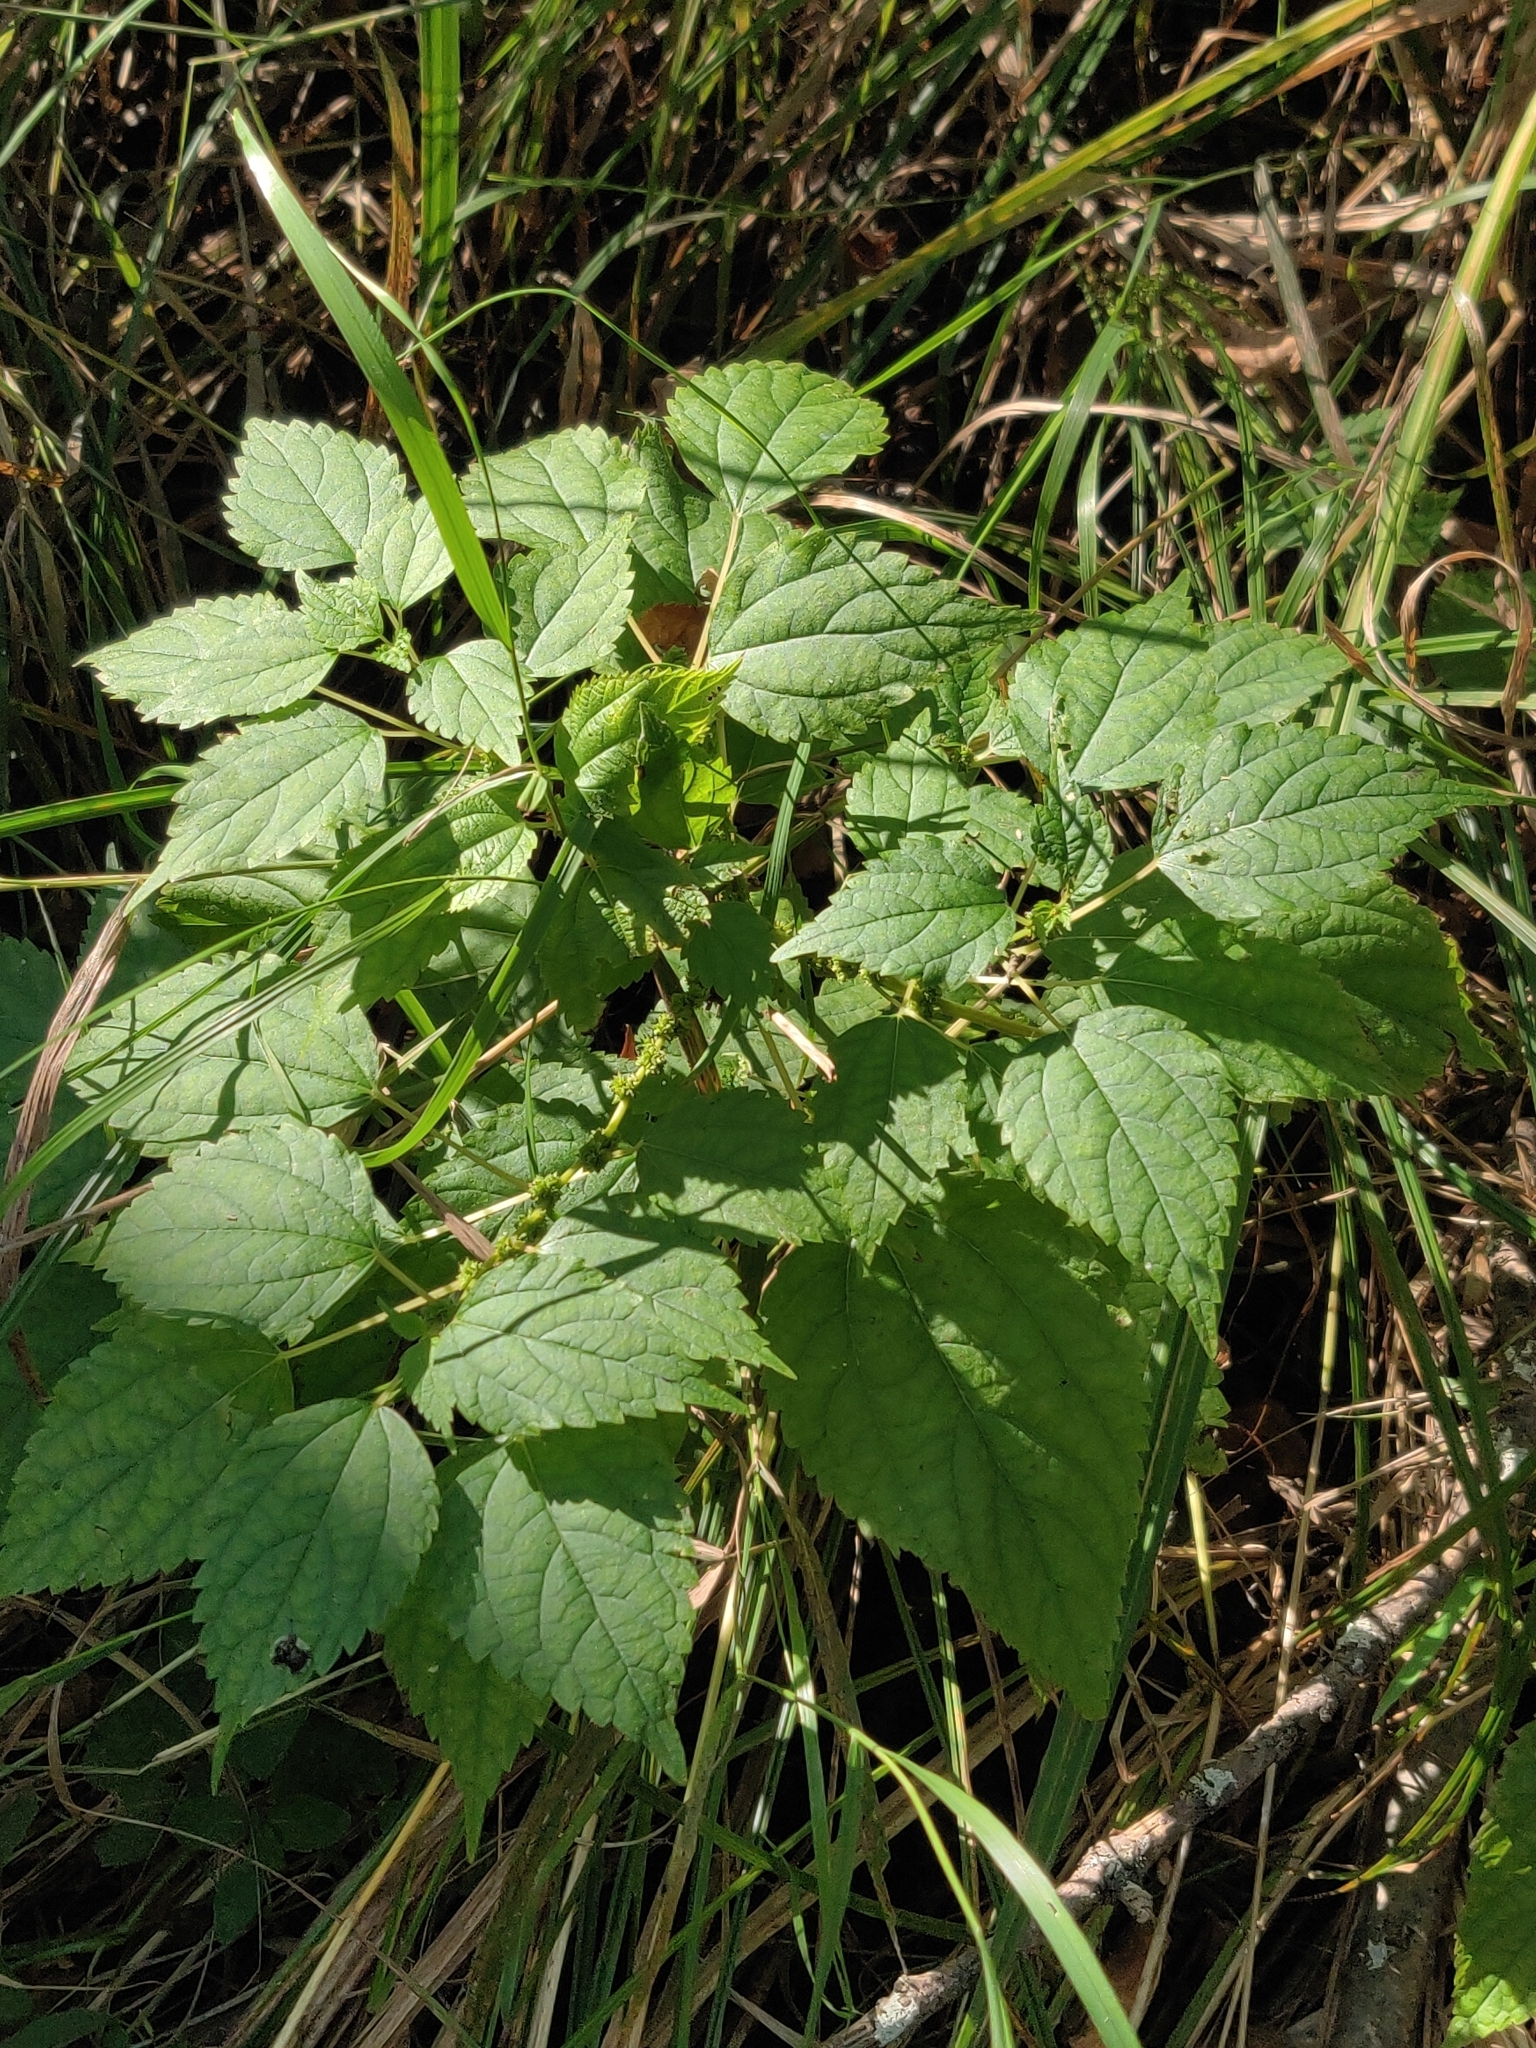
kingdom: Plantae
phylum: Tracheophyta
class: Magnoliopsida
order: Rosales
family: Urticaceae
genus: Boehmeria
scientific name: Boehmeria cylindrica
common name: Bog-hemp
